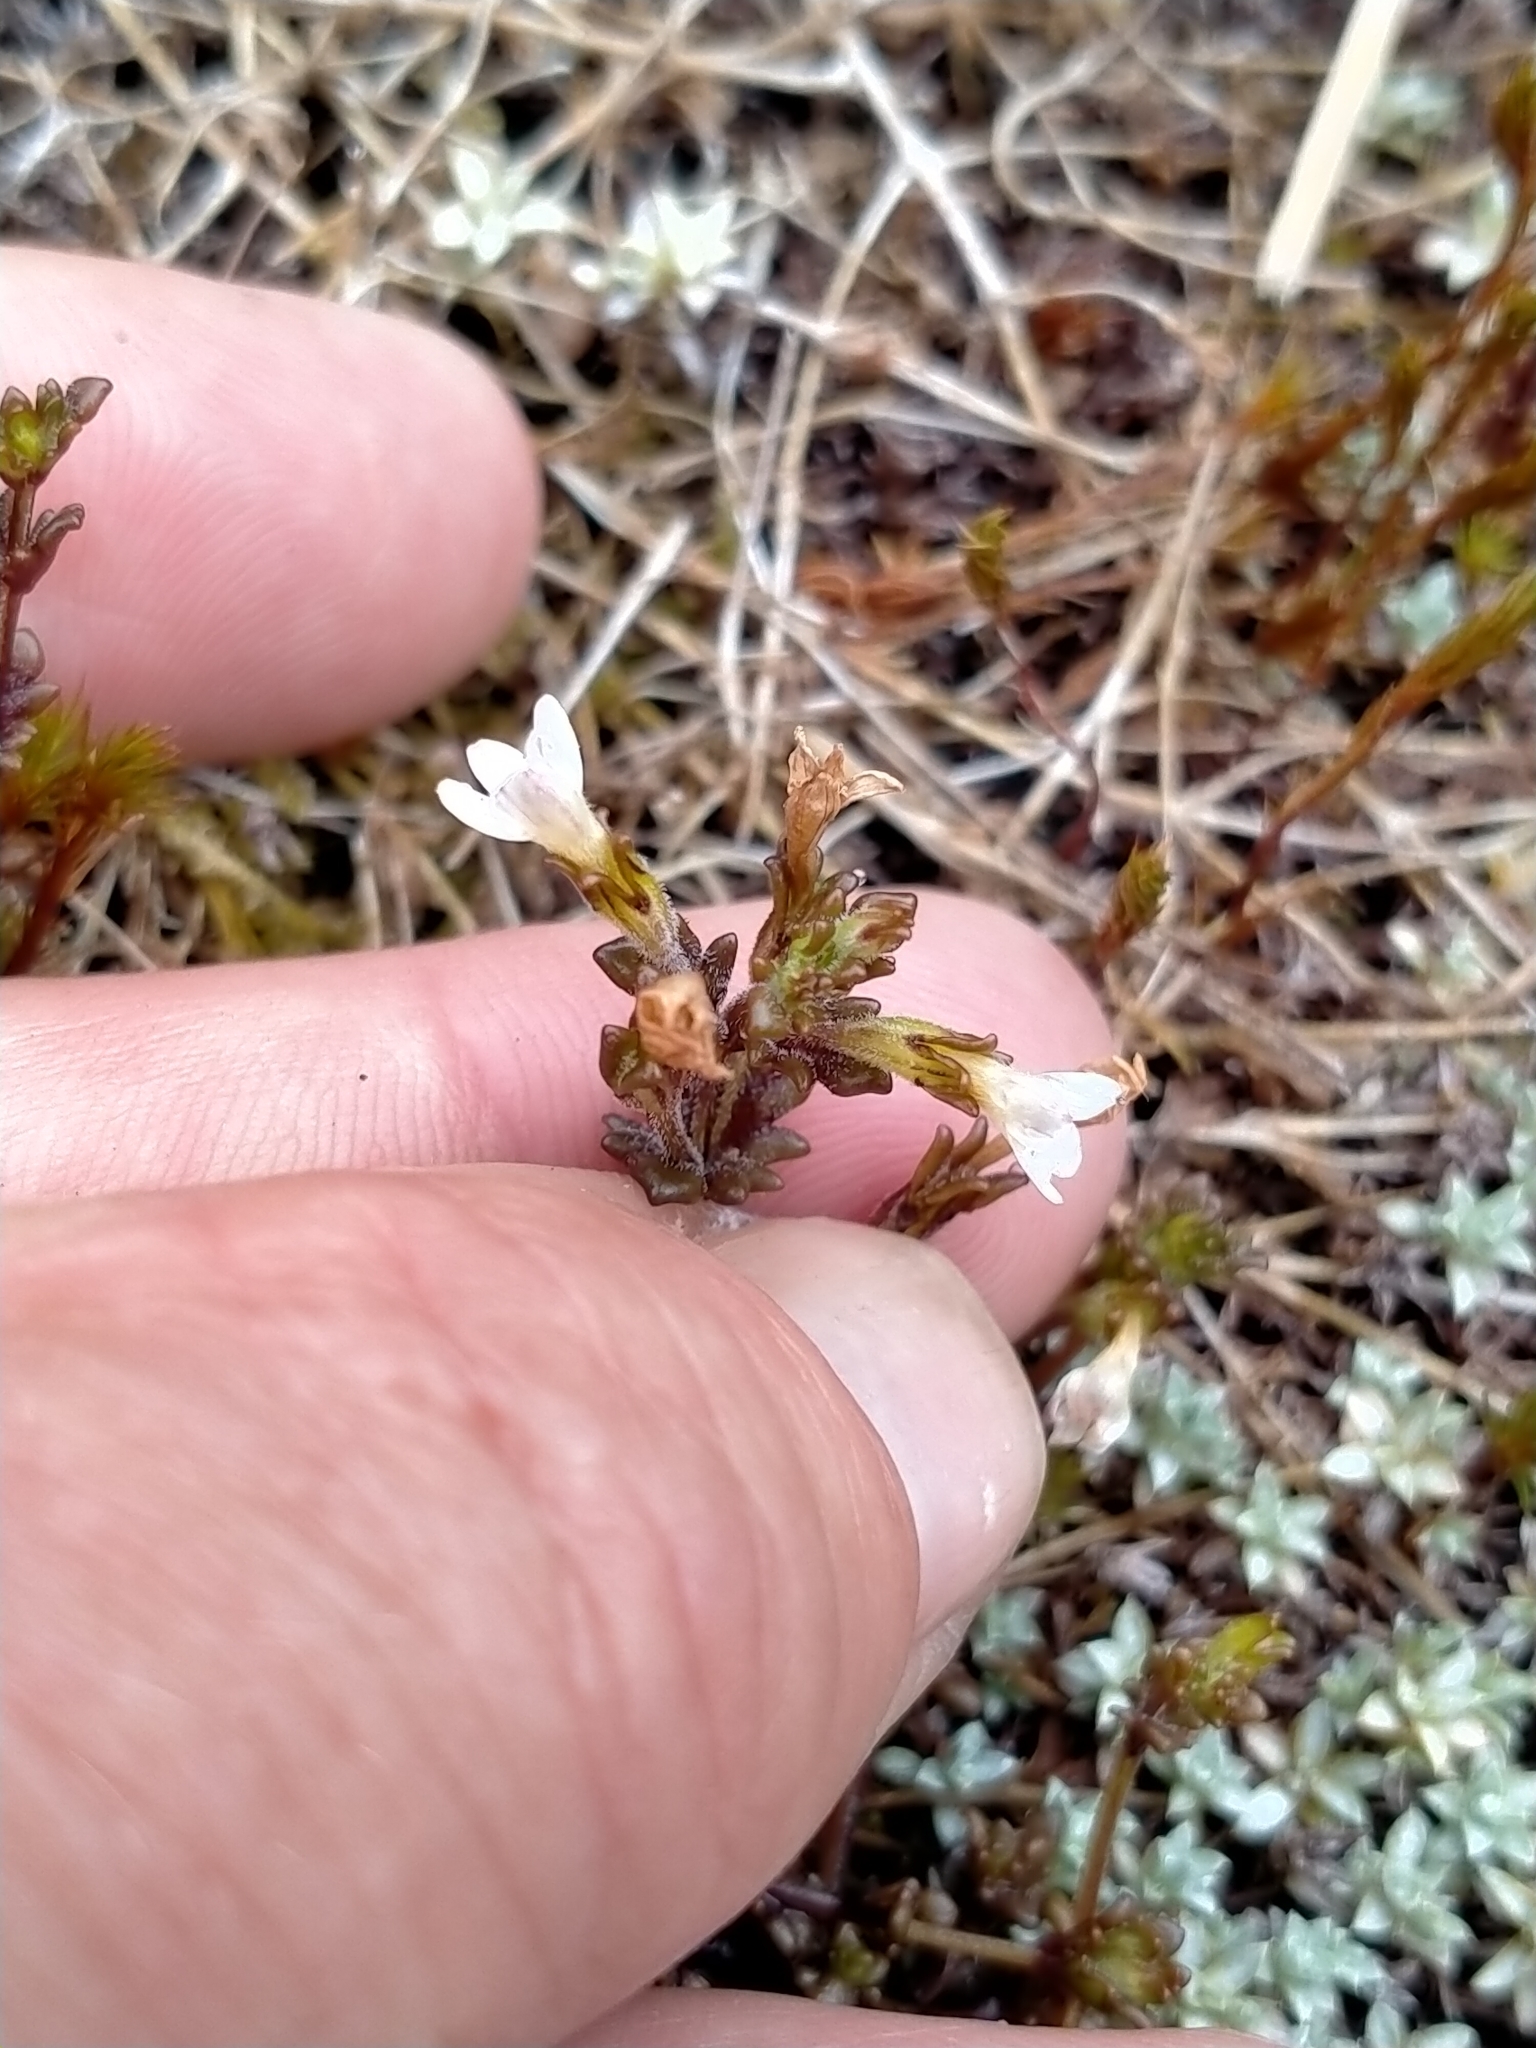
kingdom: Plantae
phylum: Tracheophyta
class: Magnoliopsida
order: Lamiales
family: Orobanchaceae
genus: Euphrasia
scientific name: Euphrasia australis
